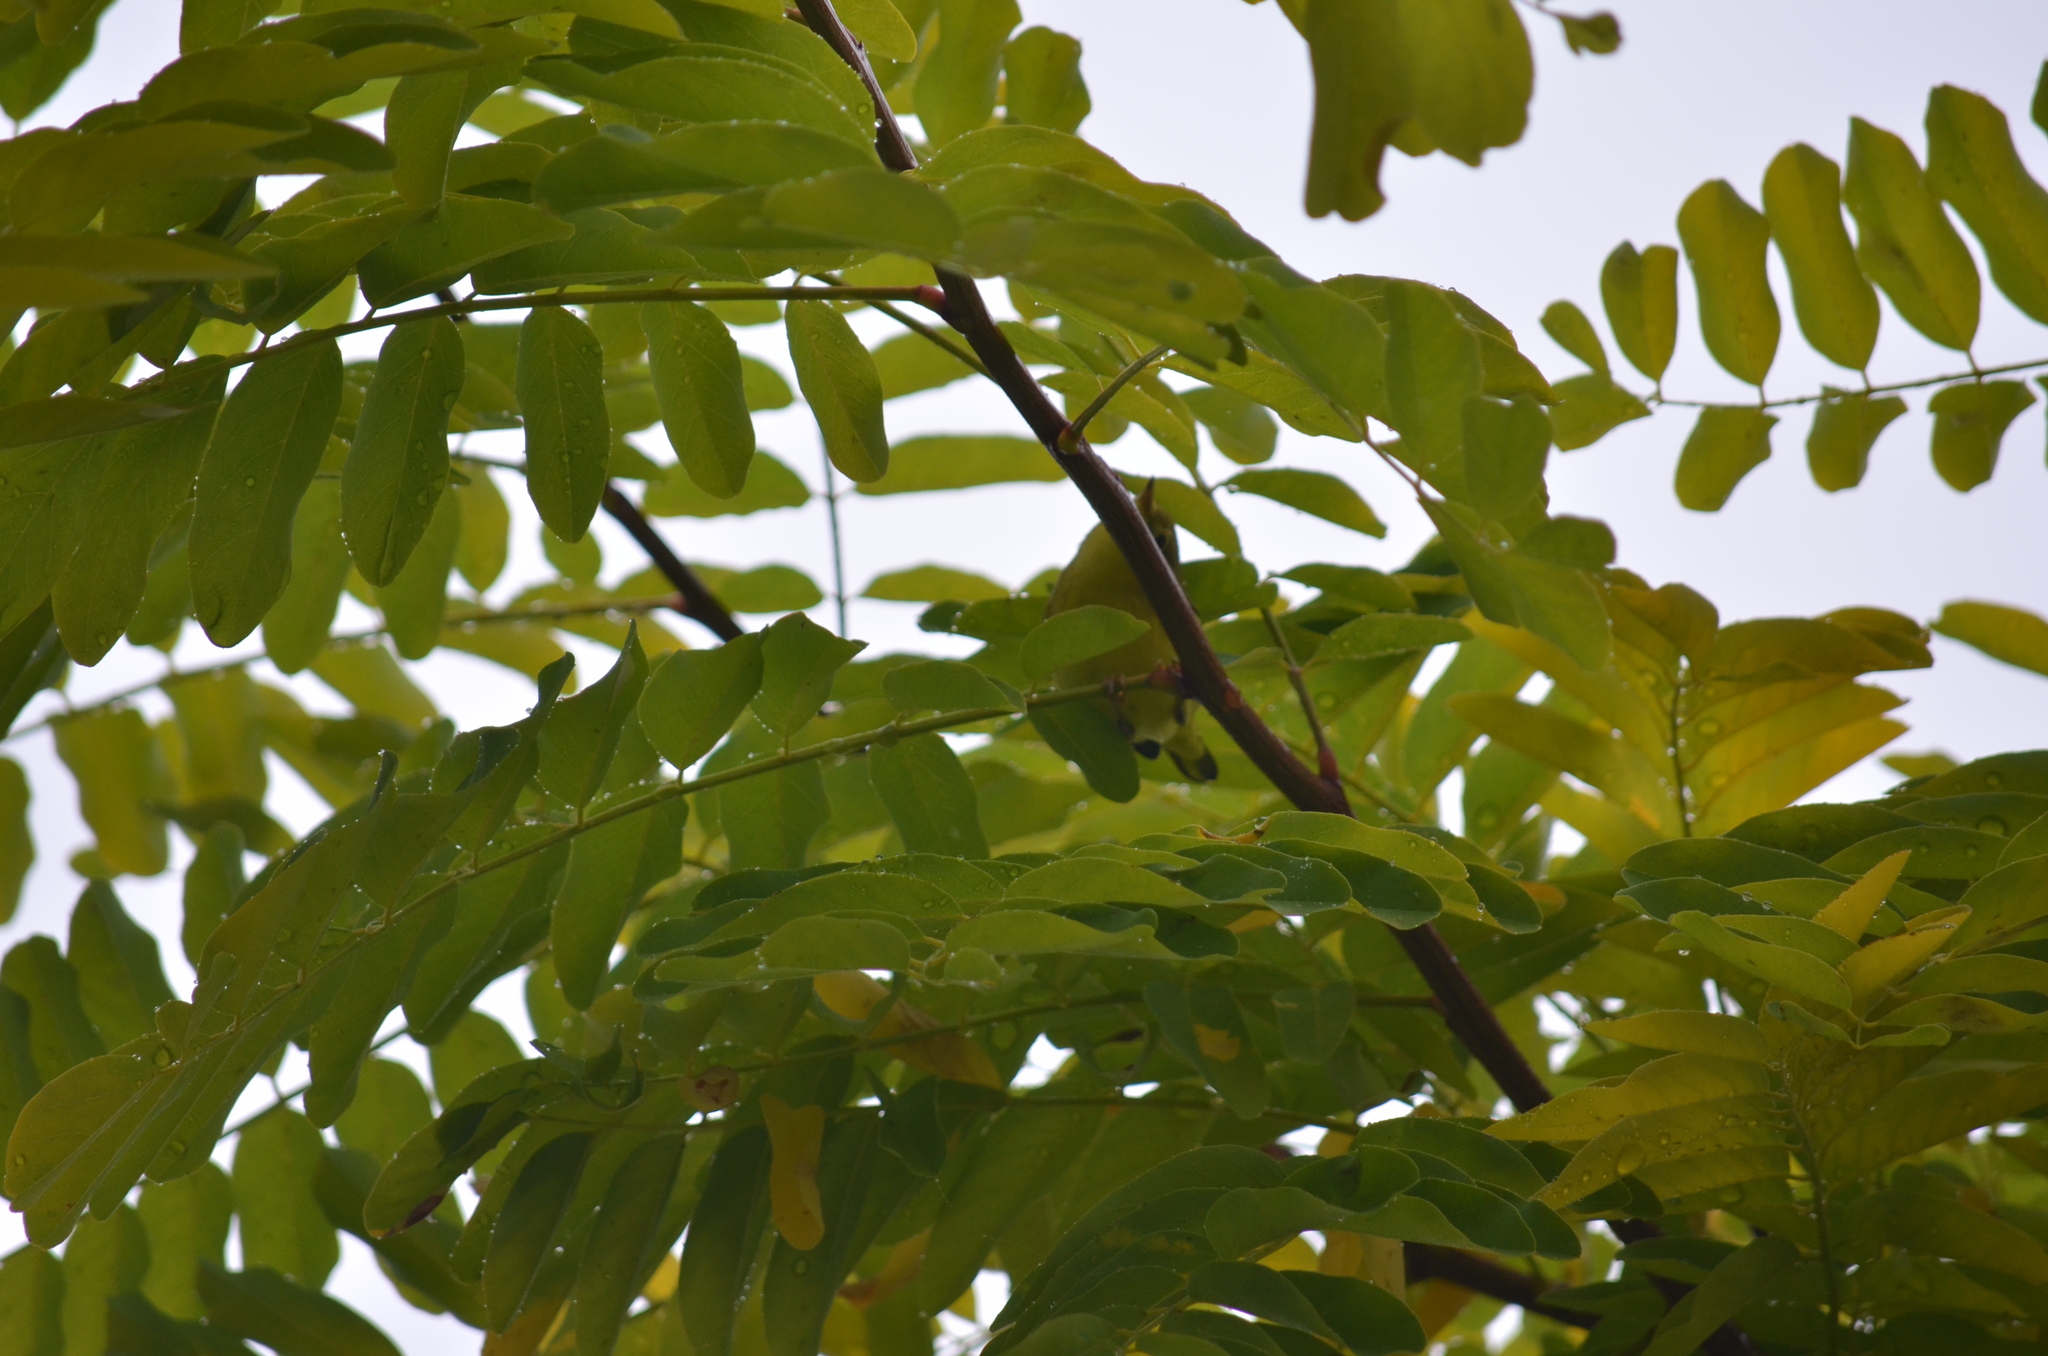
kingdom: Animalia
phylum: Chordata
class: Aves
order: Passeriformes
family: Parulidae
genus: Setophaga
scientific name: Setophaga petechia
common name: Yellow warbler
